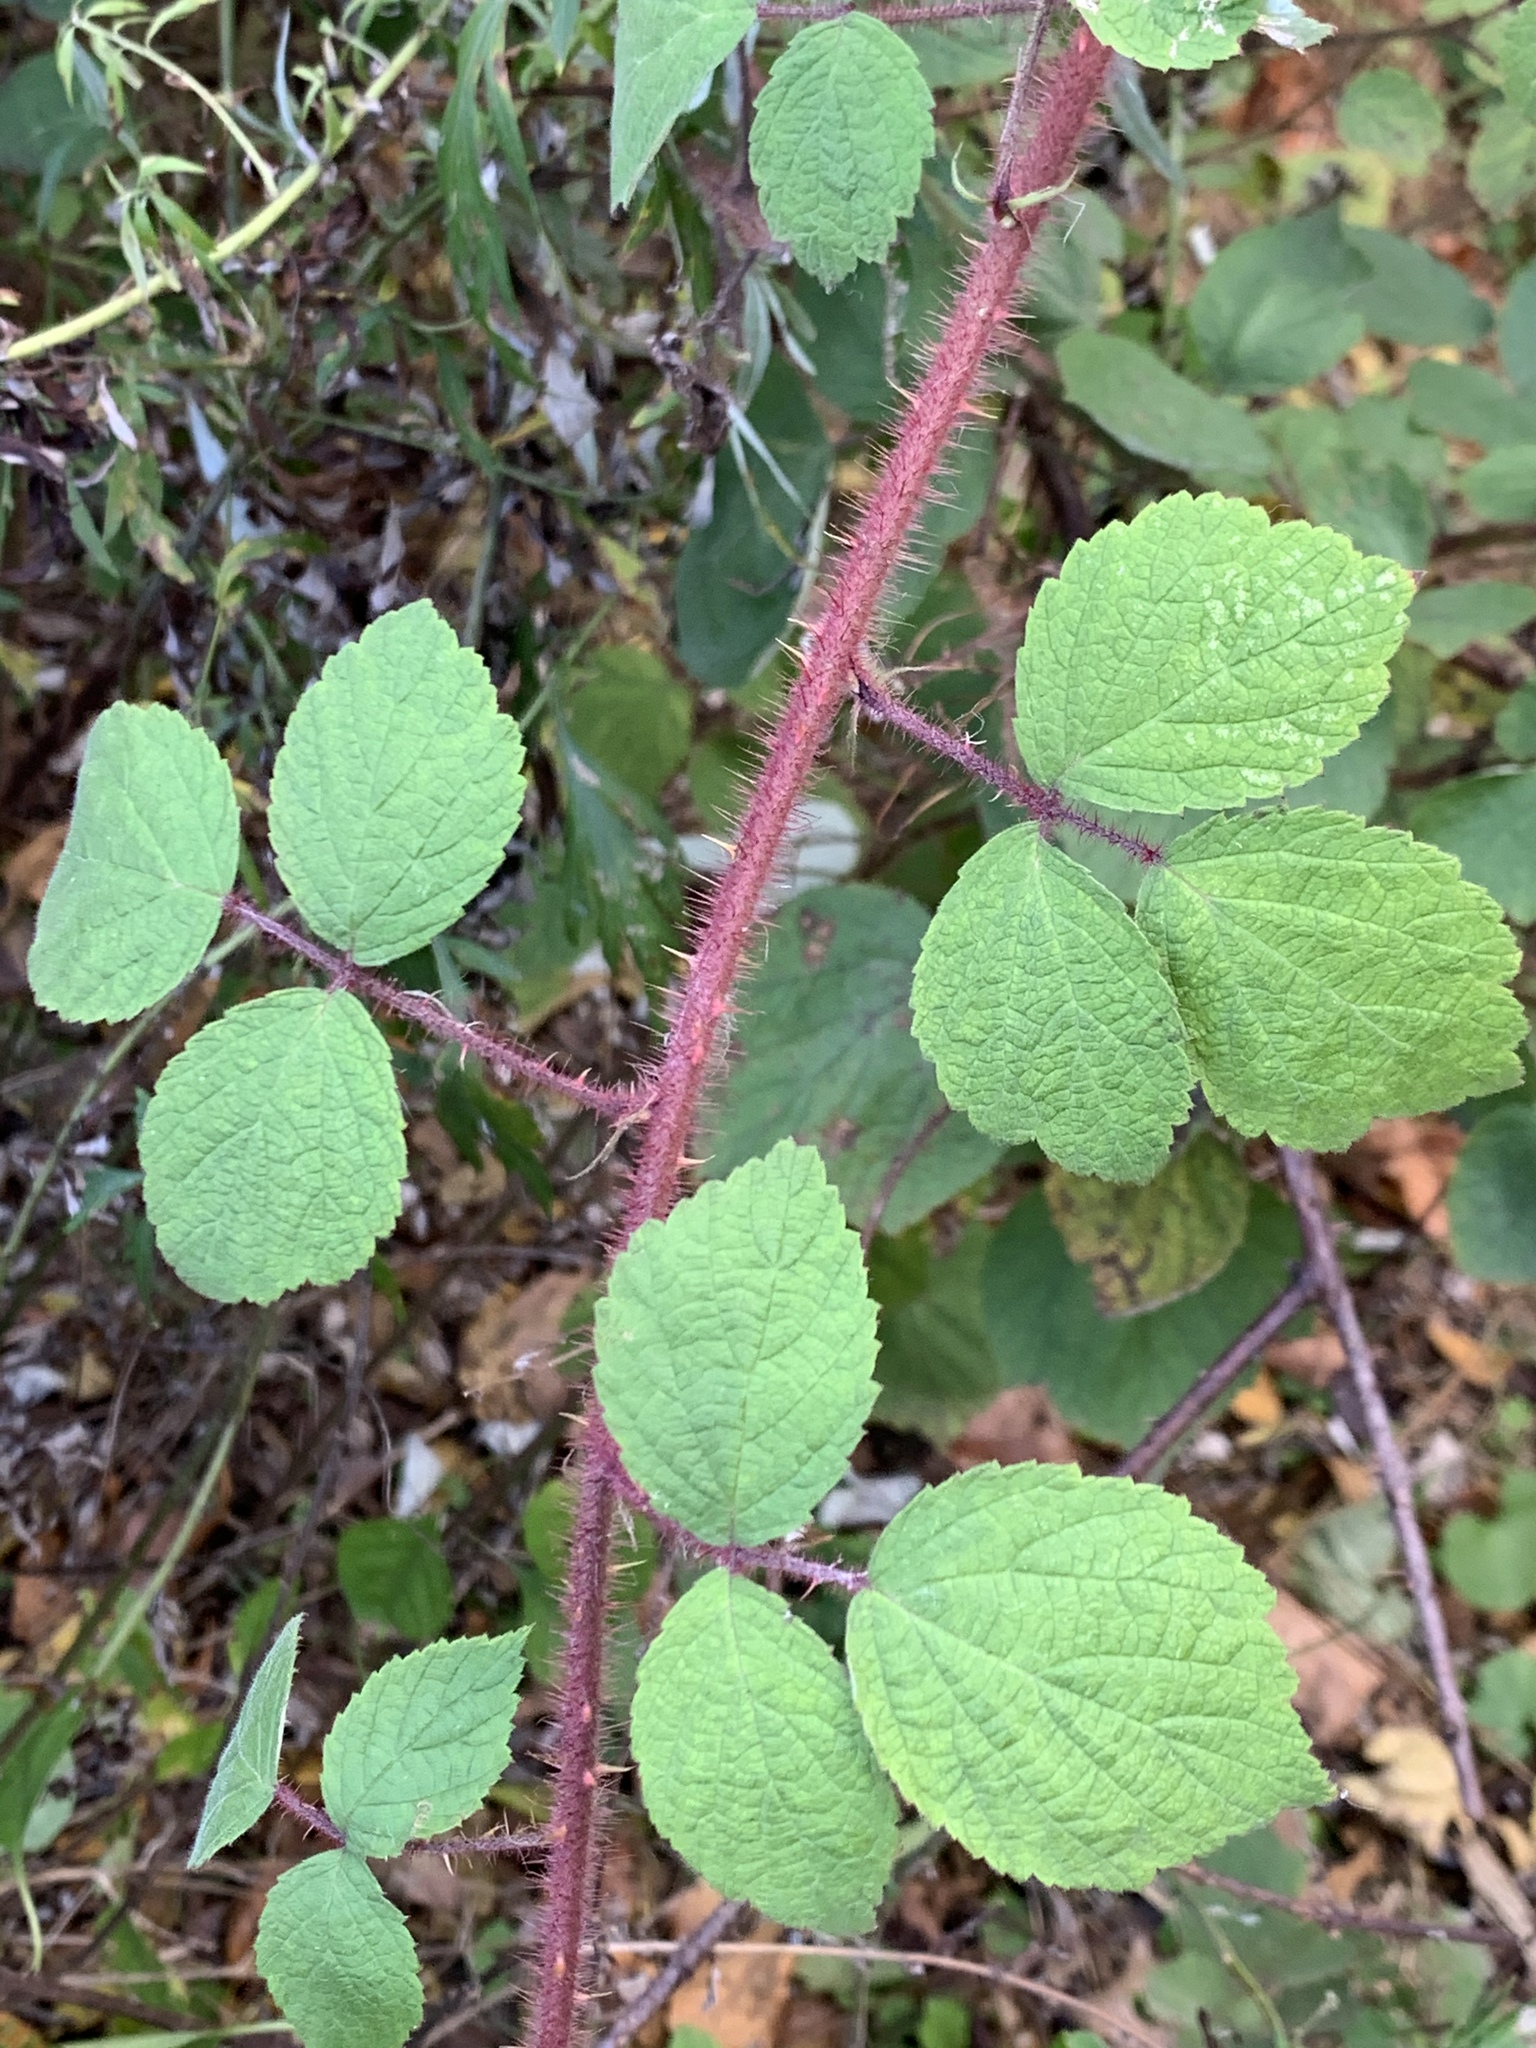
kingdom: Plantae
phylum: Tracheophyta
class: Magnoliopsida
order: Rosales
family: Rosaceae
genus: Rubus
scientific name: Rubus phoenicolasius
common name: Japanese wineberry
